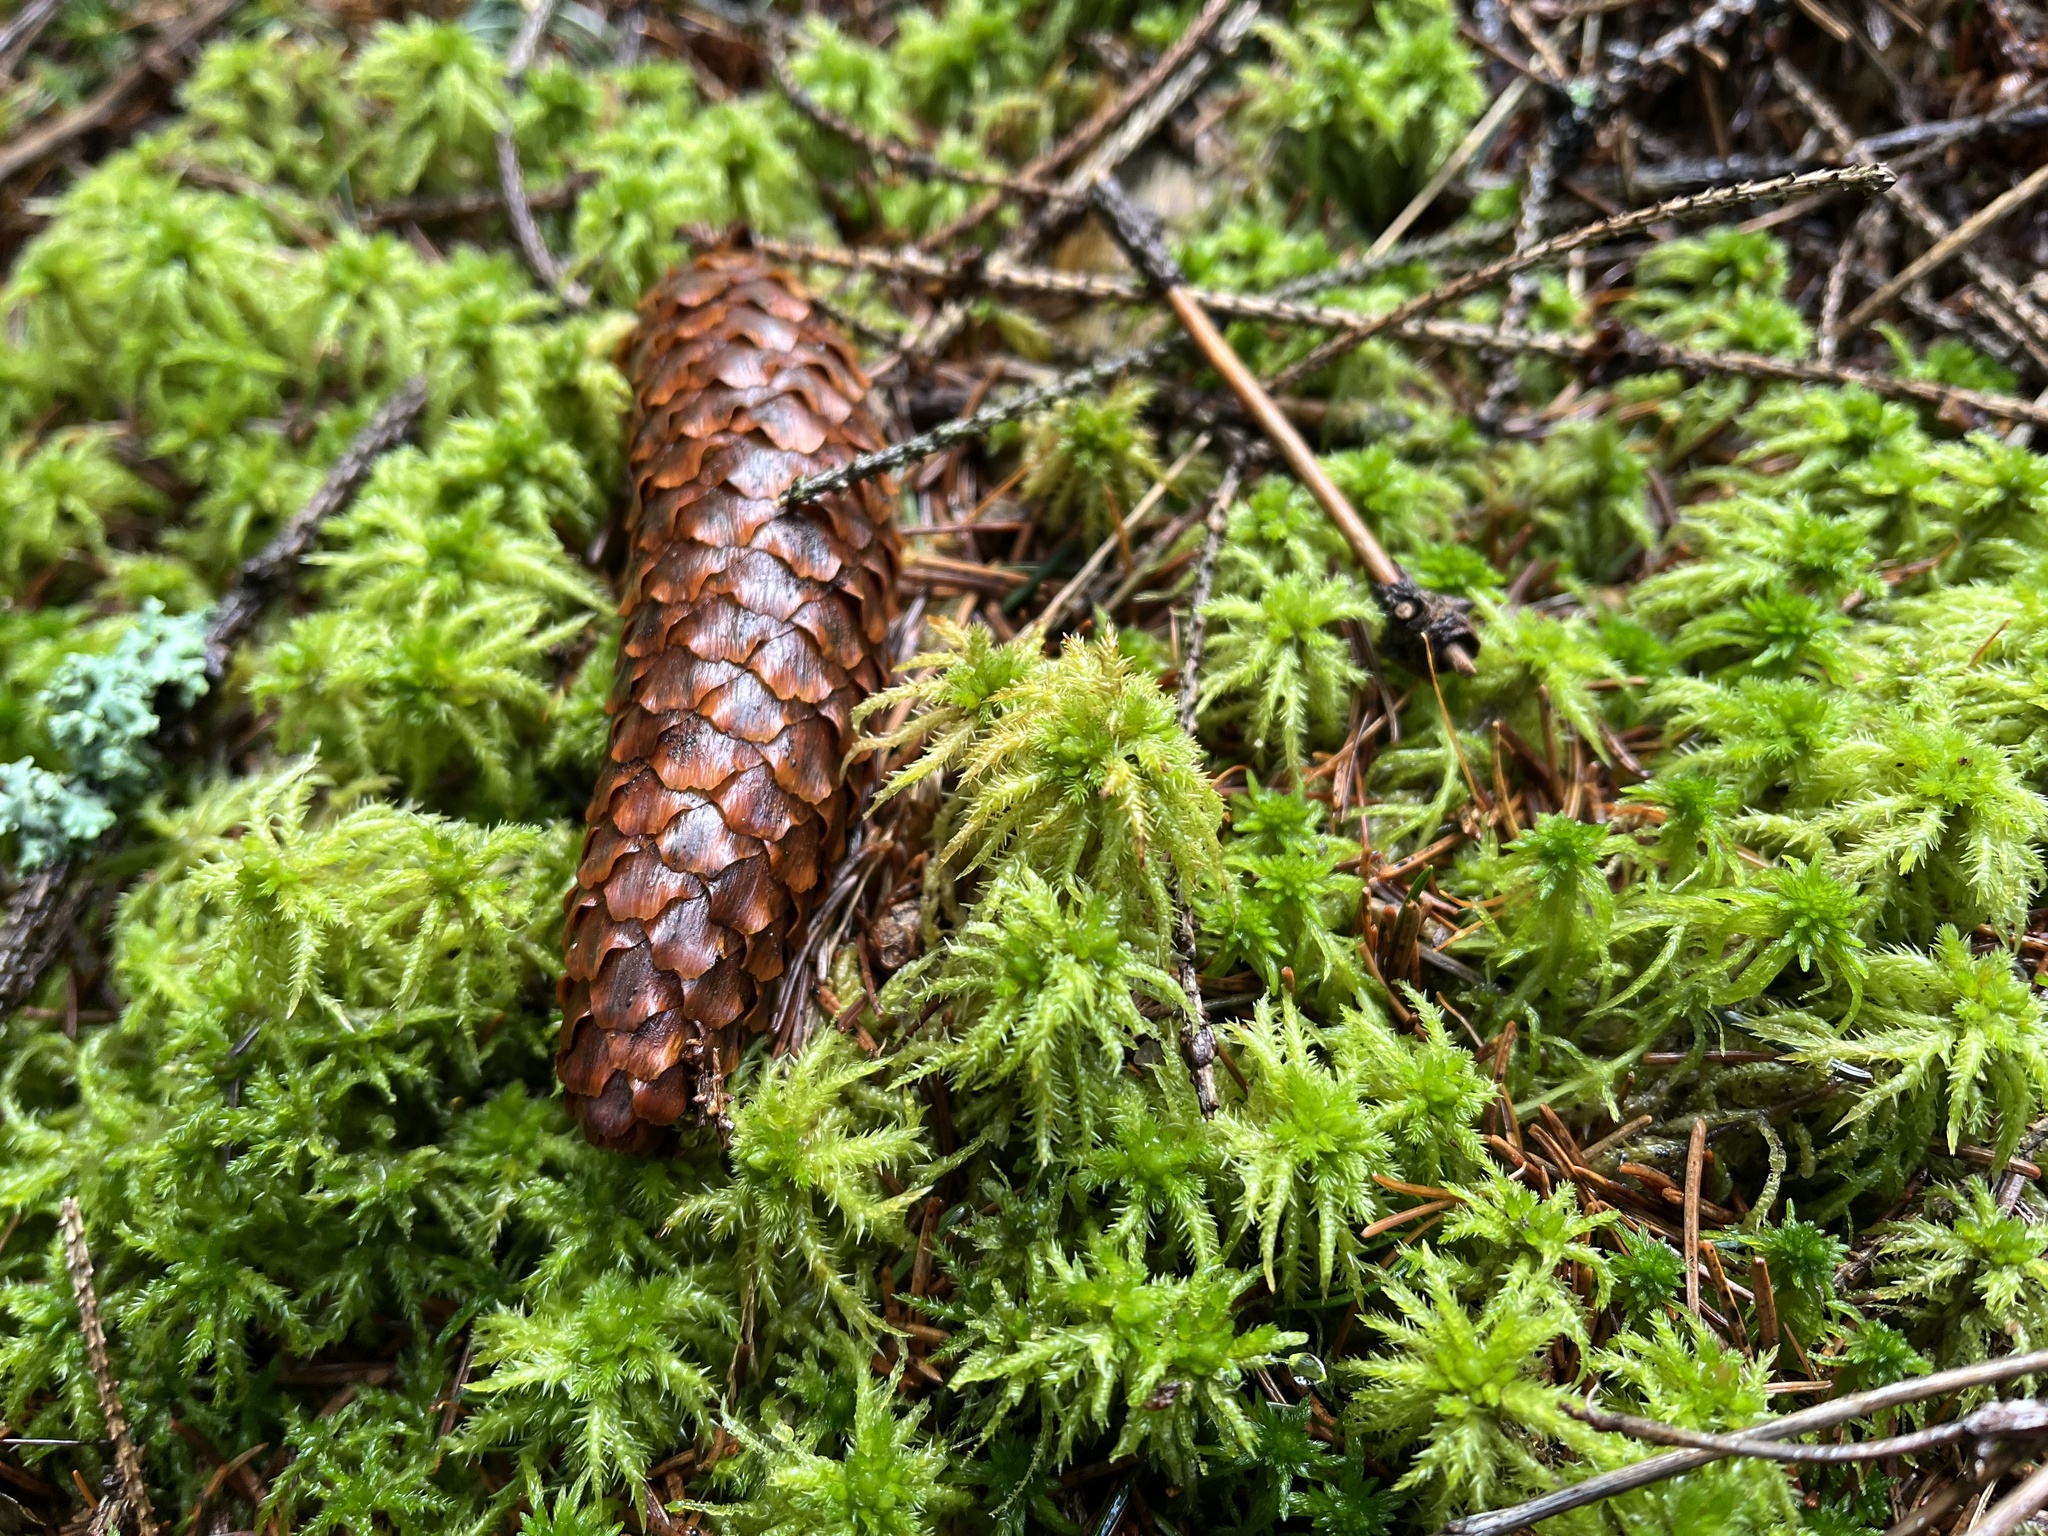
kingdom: Plantae
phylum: Bryophyta
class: Sphagnopsida
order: Sphagnales
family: Sphagnaceae
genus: Sphagnum
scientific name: Sphagnum squarrosum
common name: Shaggy peat moss
